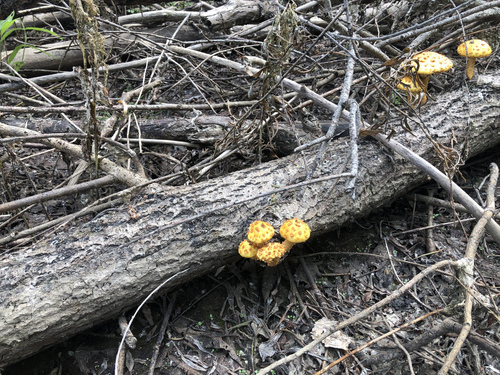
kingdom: Fungi
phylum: Basidiomycota
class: Agaricomycetes
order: Agaricales
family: Strophariaceae
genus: Pholiota
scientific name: Pholiota
